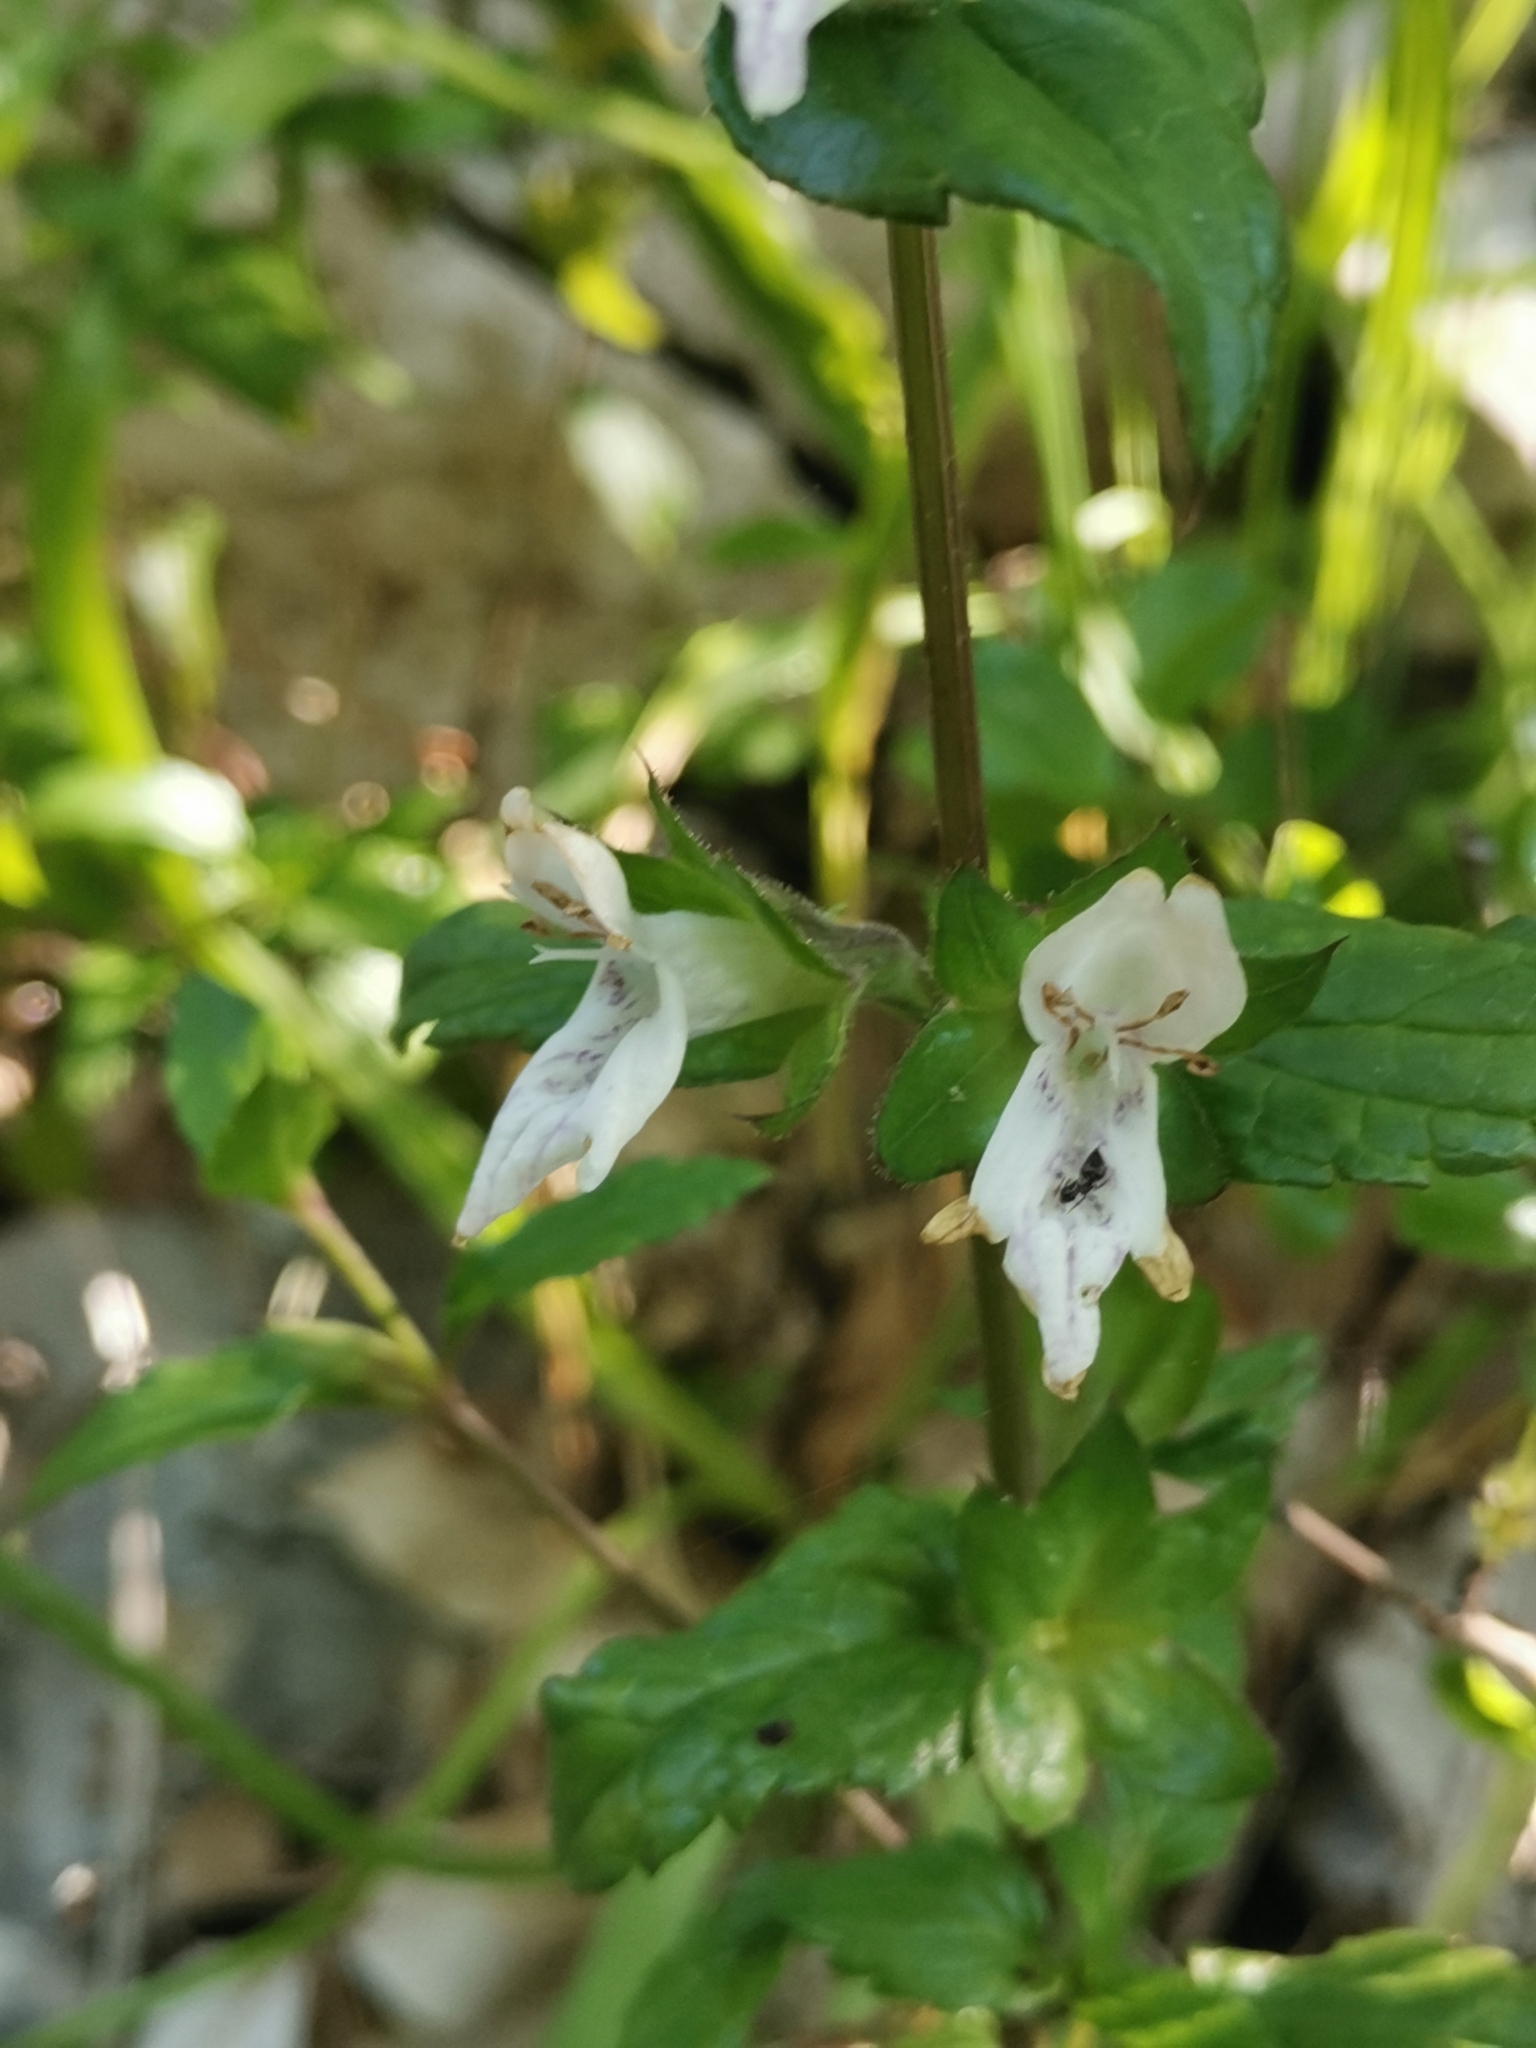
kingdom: Plantae
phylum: Tracheophyta
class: Magnoliopsida
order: Lamiales
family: Lamiaceae
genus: Prasium
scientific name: Prasium majus
